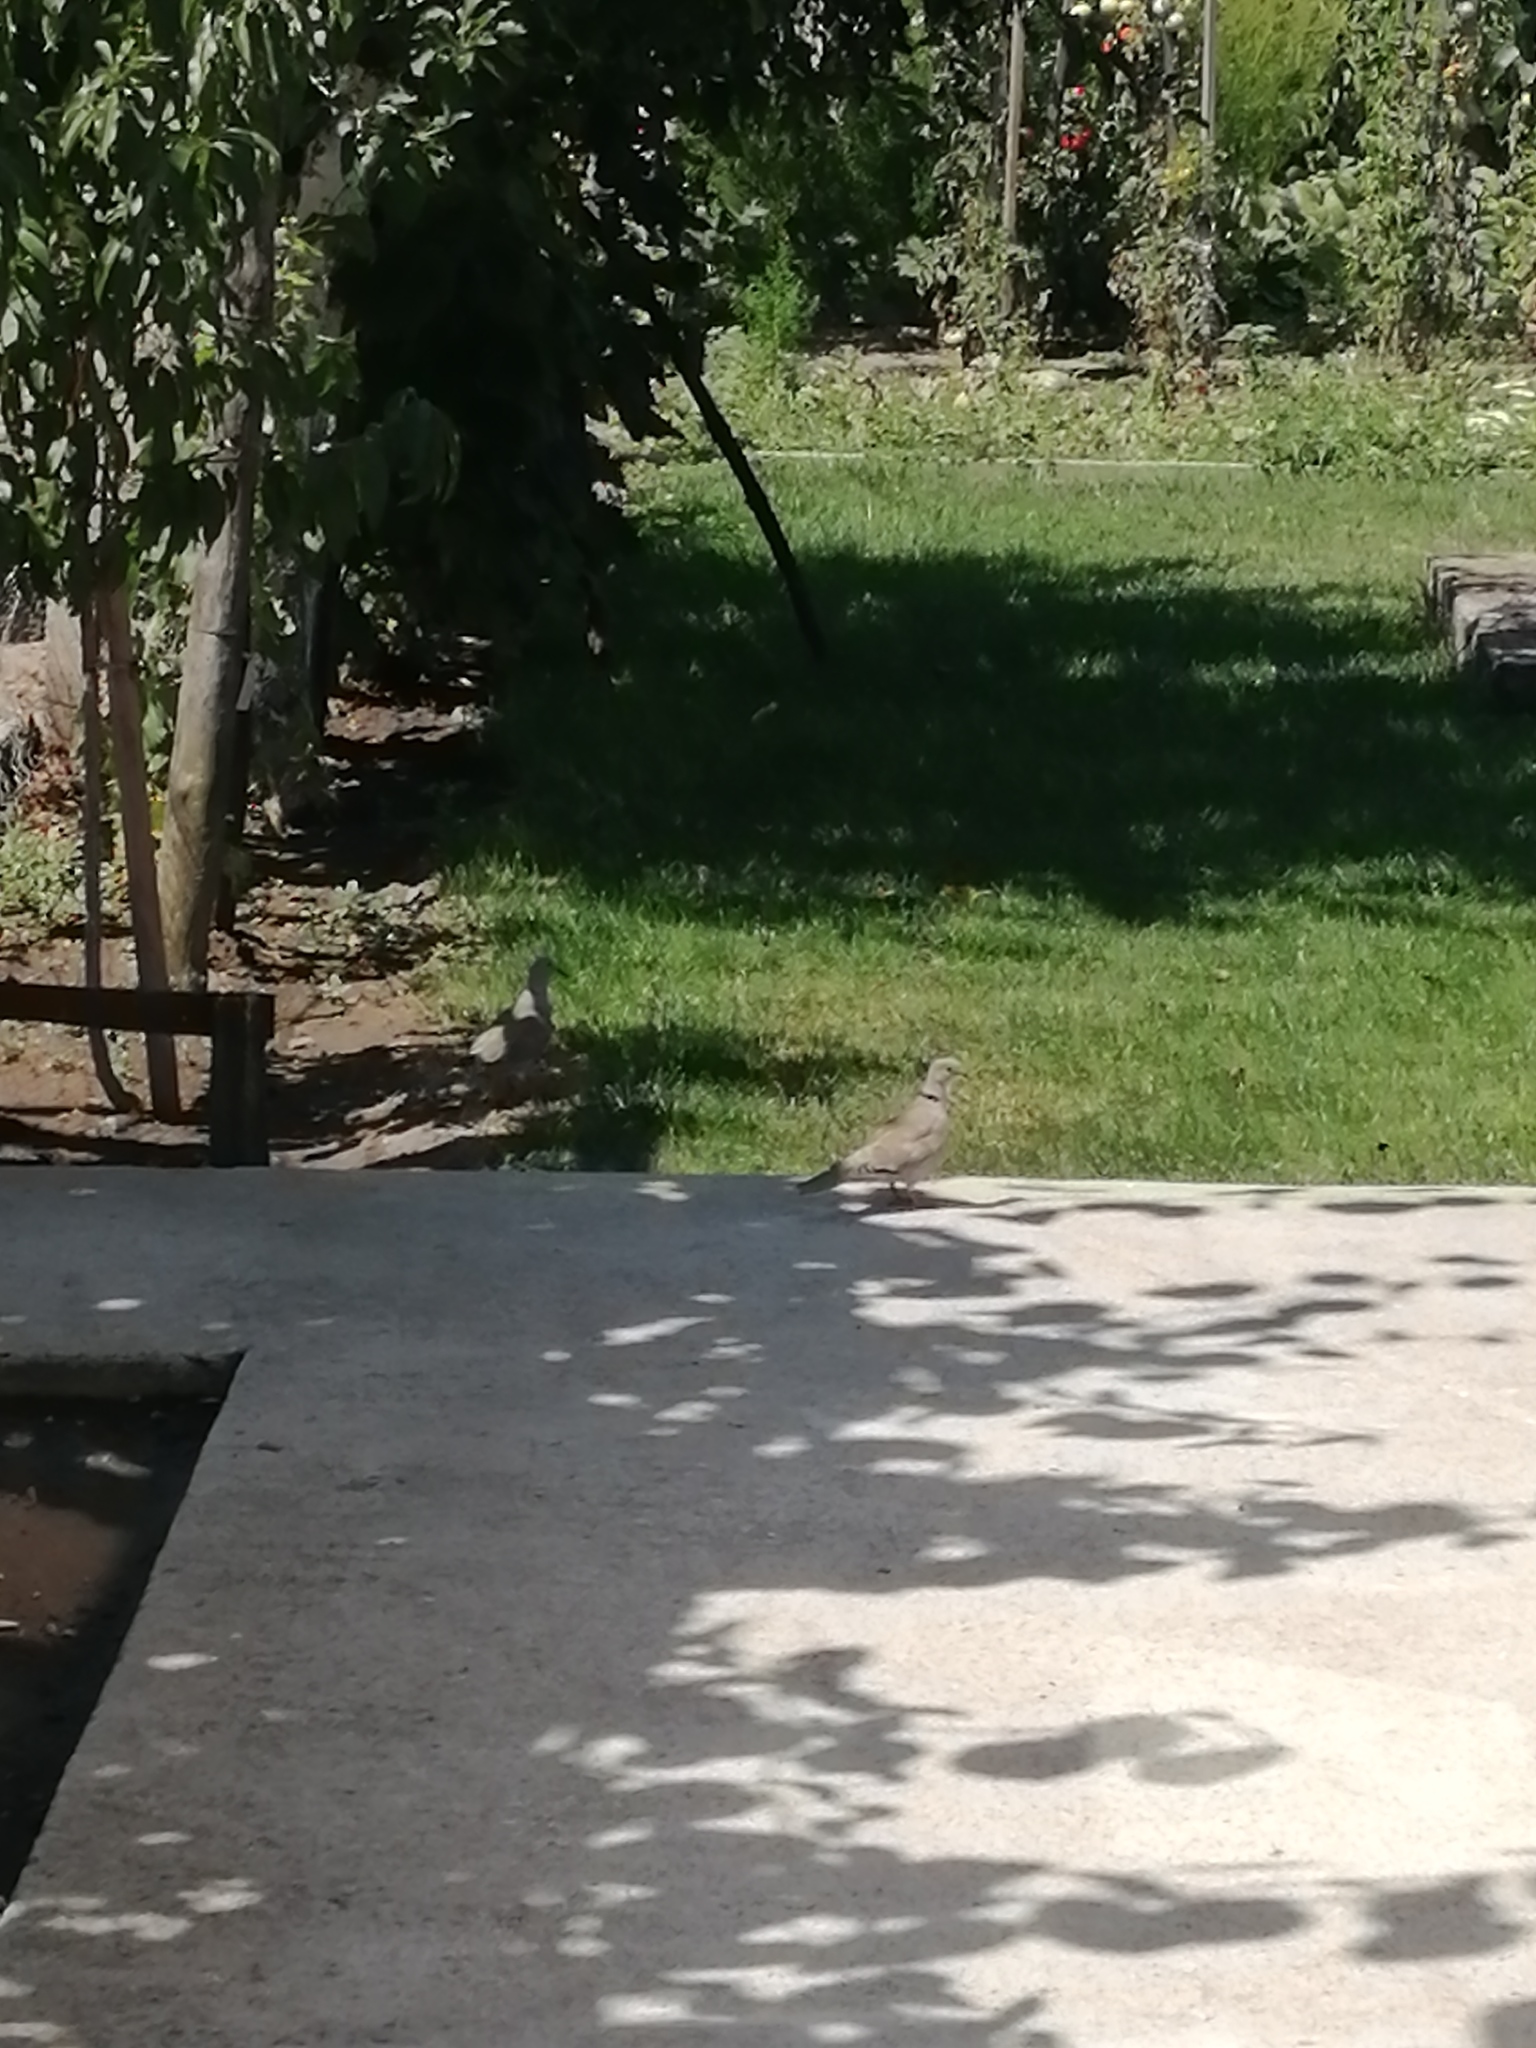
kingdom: Animalia
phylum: Chordata
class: Aves
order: Columbiformes
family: Columbidae
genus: Streptopelia
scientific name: Streptopelia decaocto
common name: Eurasian collared dove
